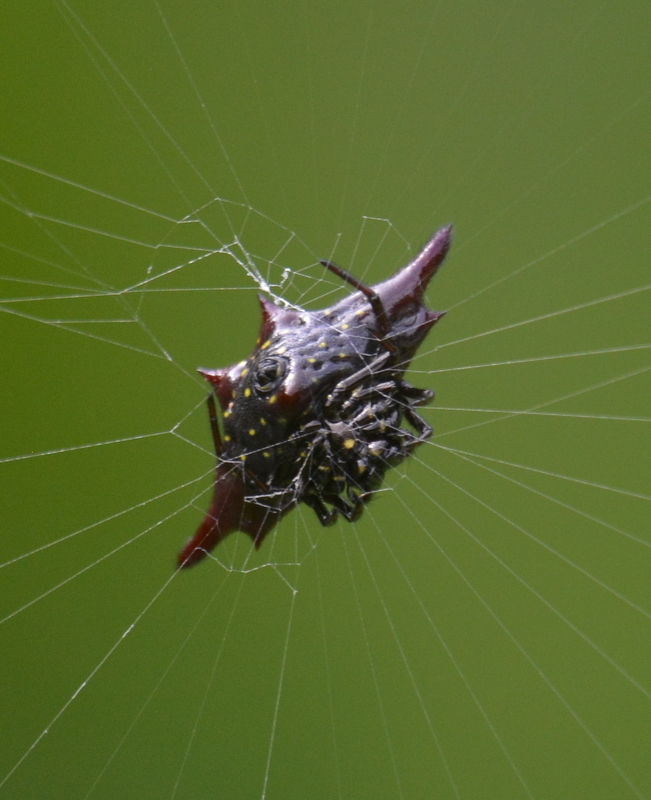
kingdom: Animalia
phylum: Arthropoda
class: Arachnida
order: Araneae
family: Araneidae
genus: Gasteracantha
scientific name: Gasteracantha diadesmia
